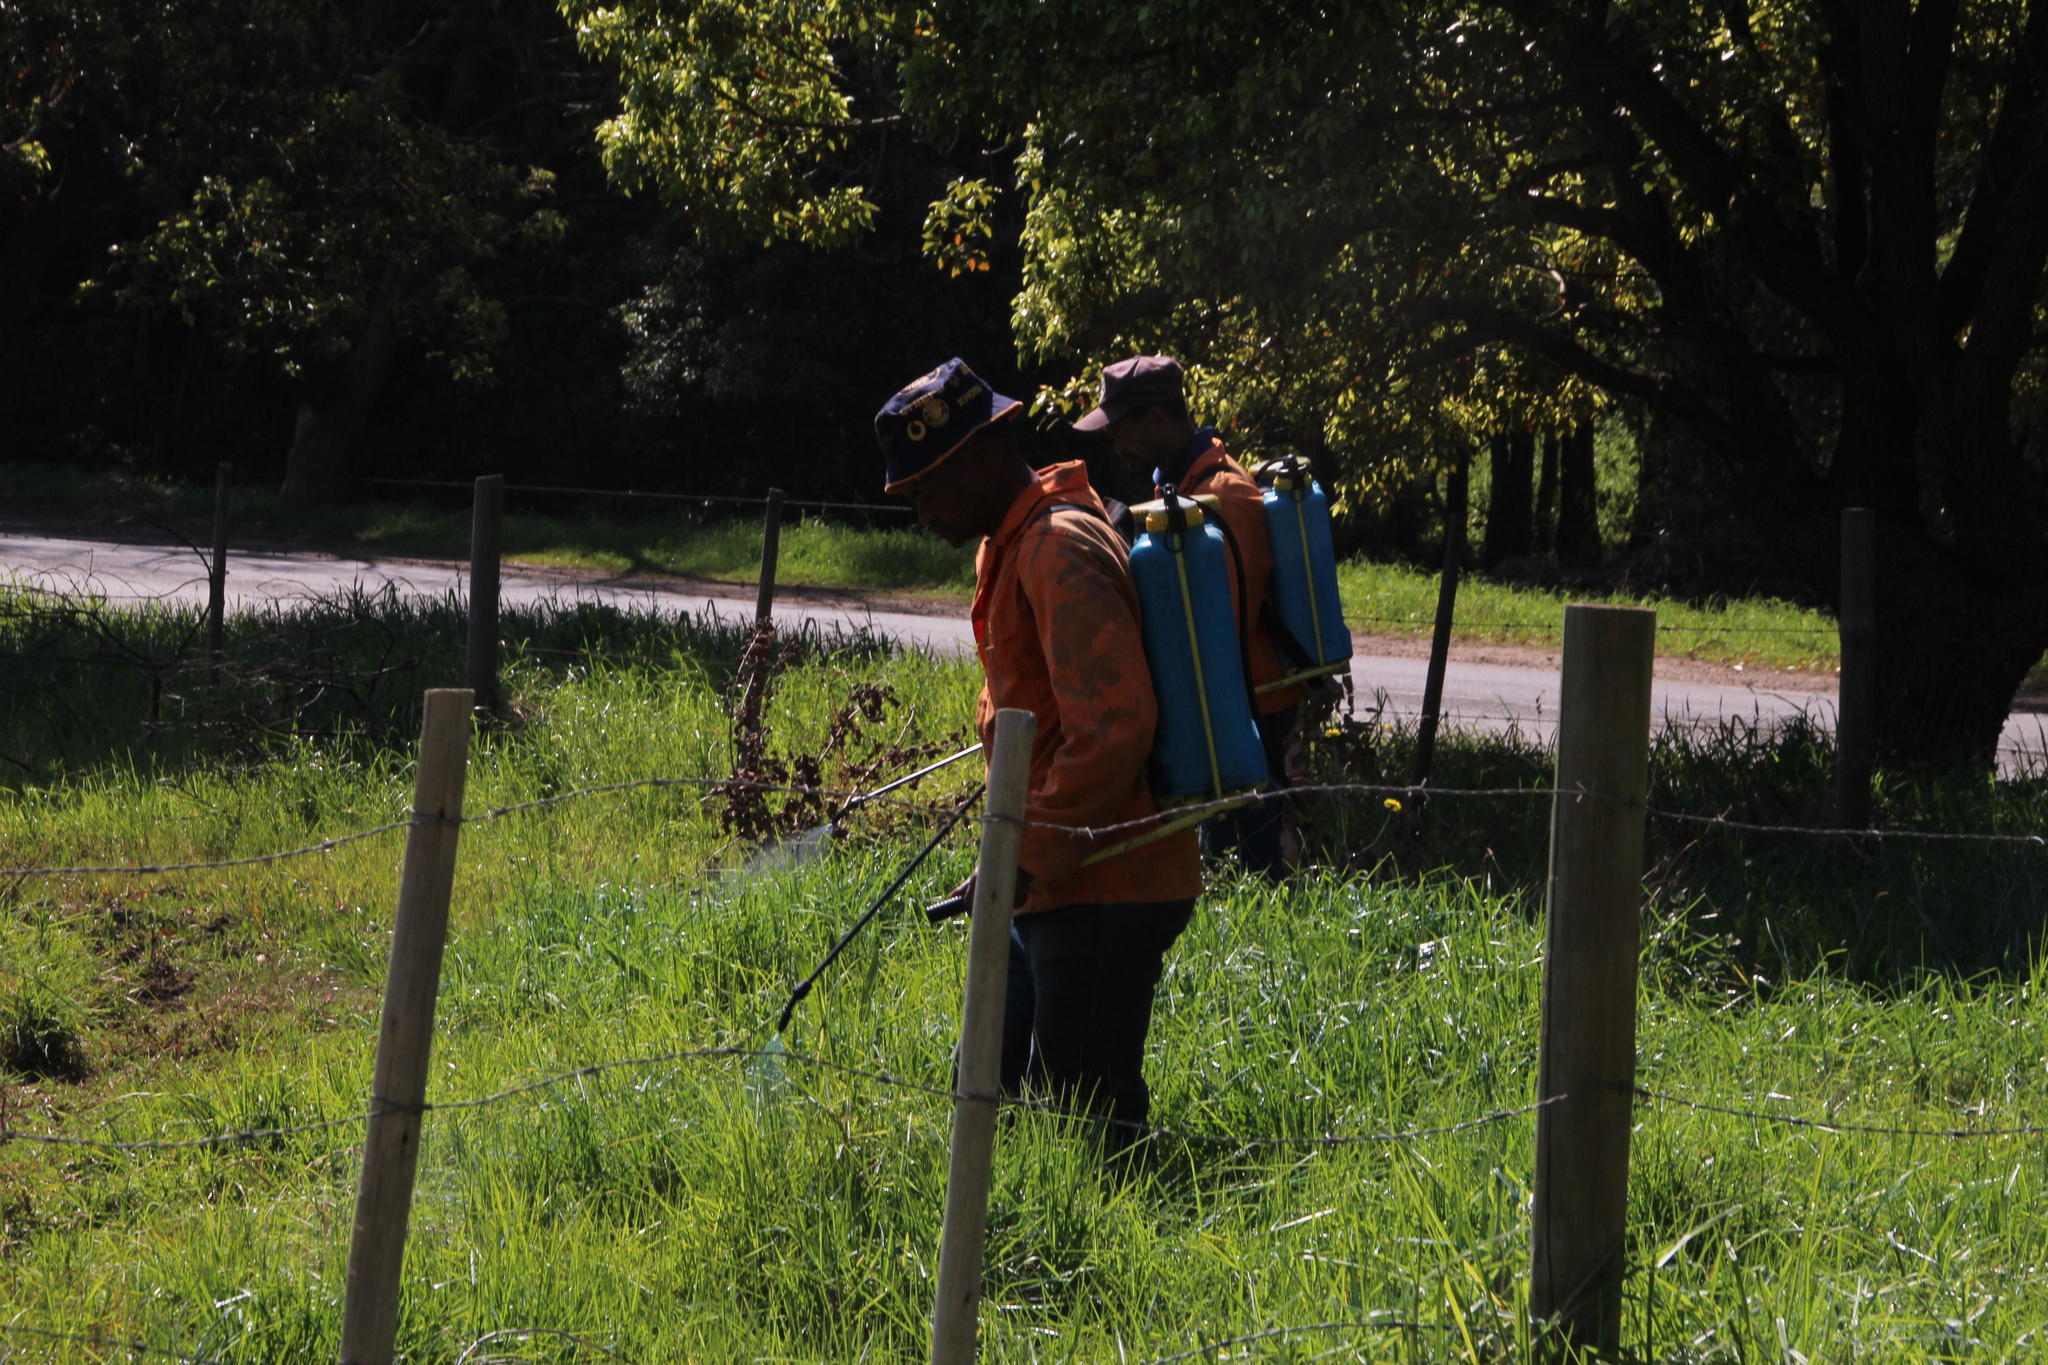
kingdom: Plantae
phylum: Tracheophyta
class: Liliopsida
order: Poales
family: Poaceae
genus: Cenchrus
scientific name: Cenchrus clandestinus
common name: Kikuyugrass
